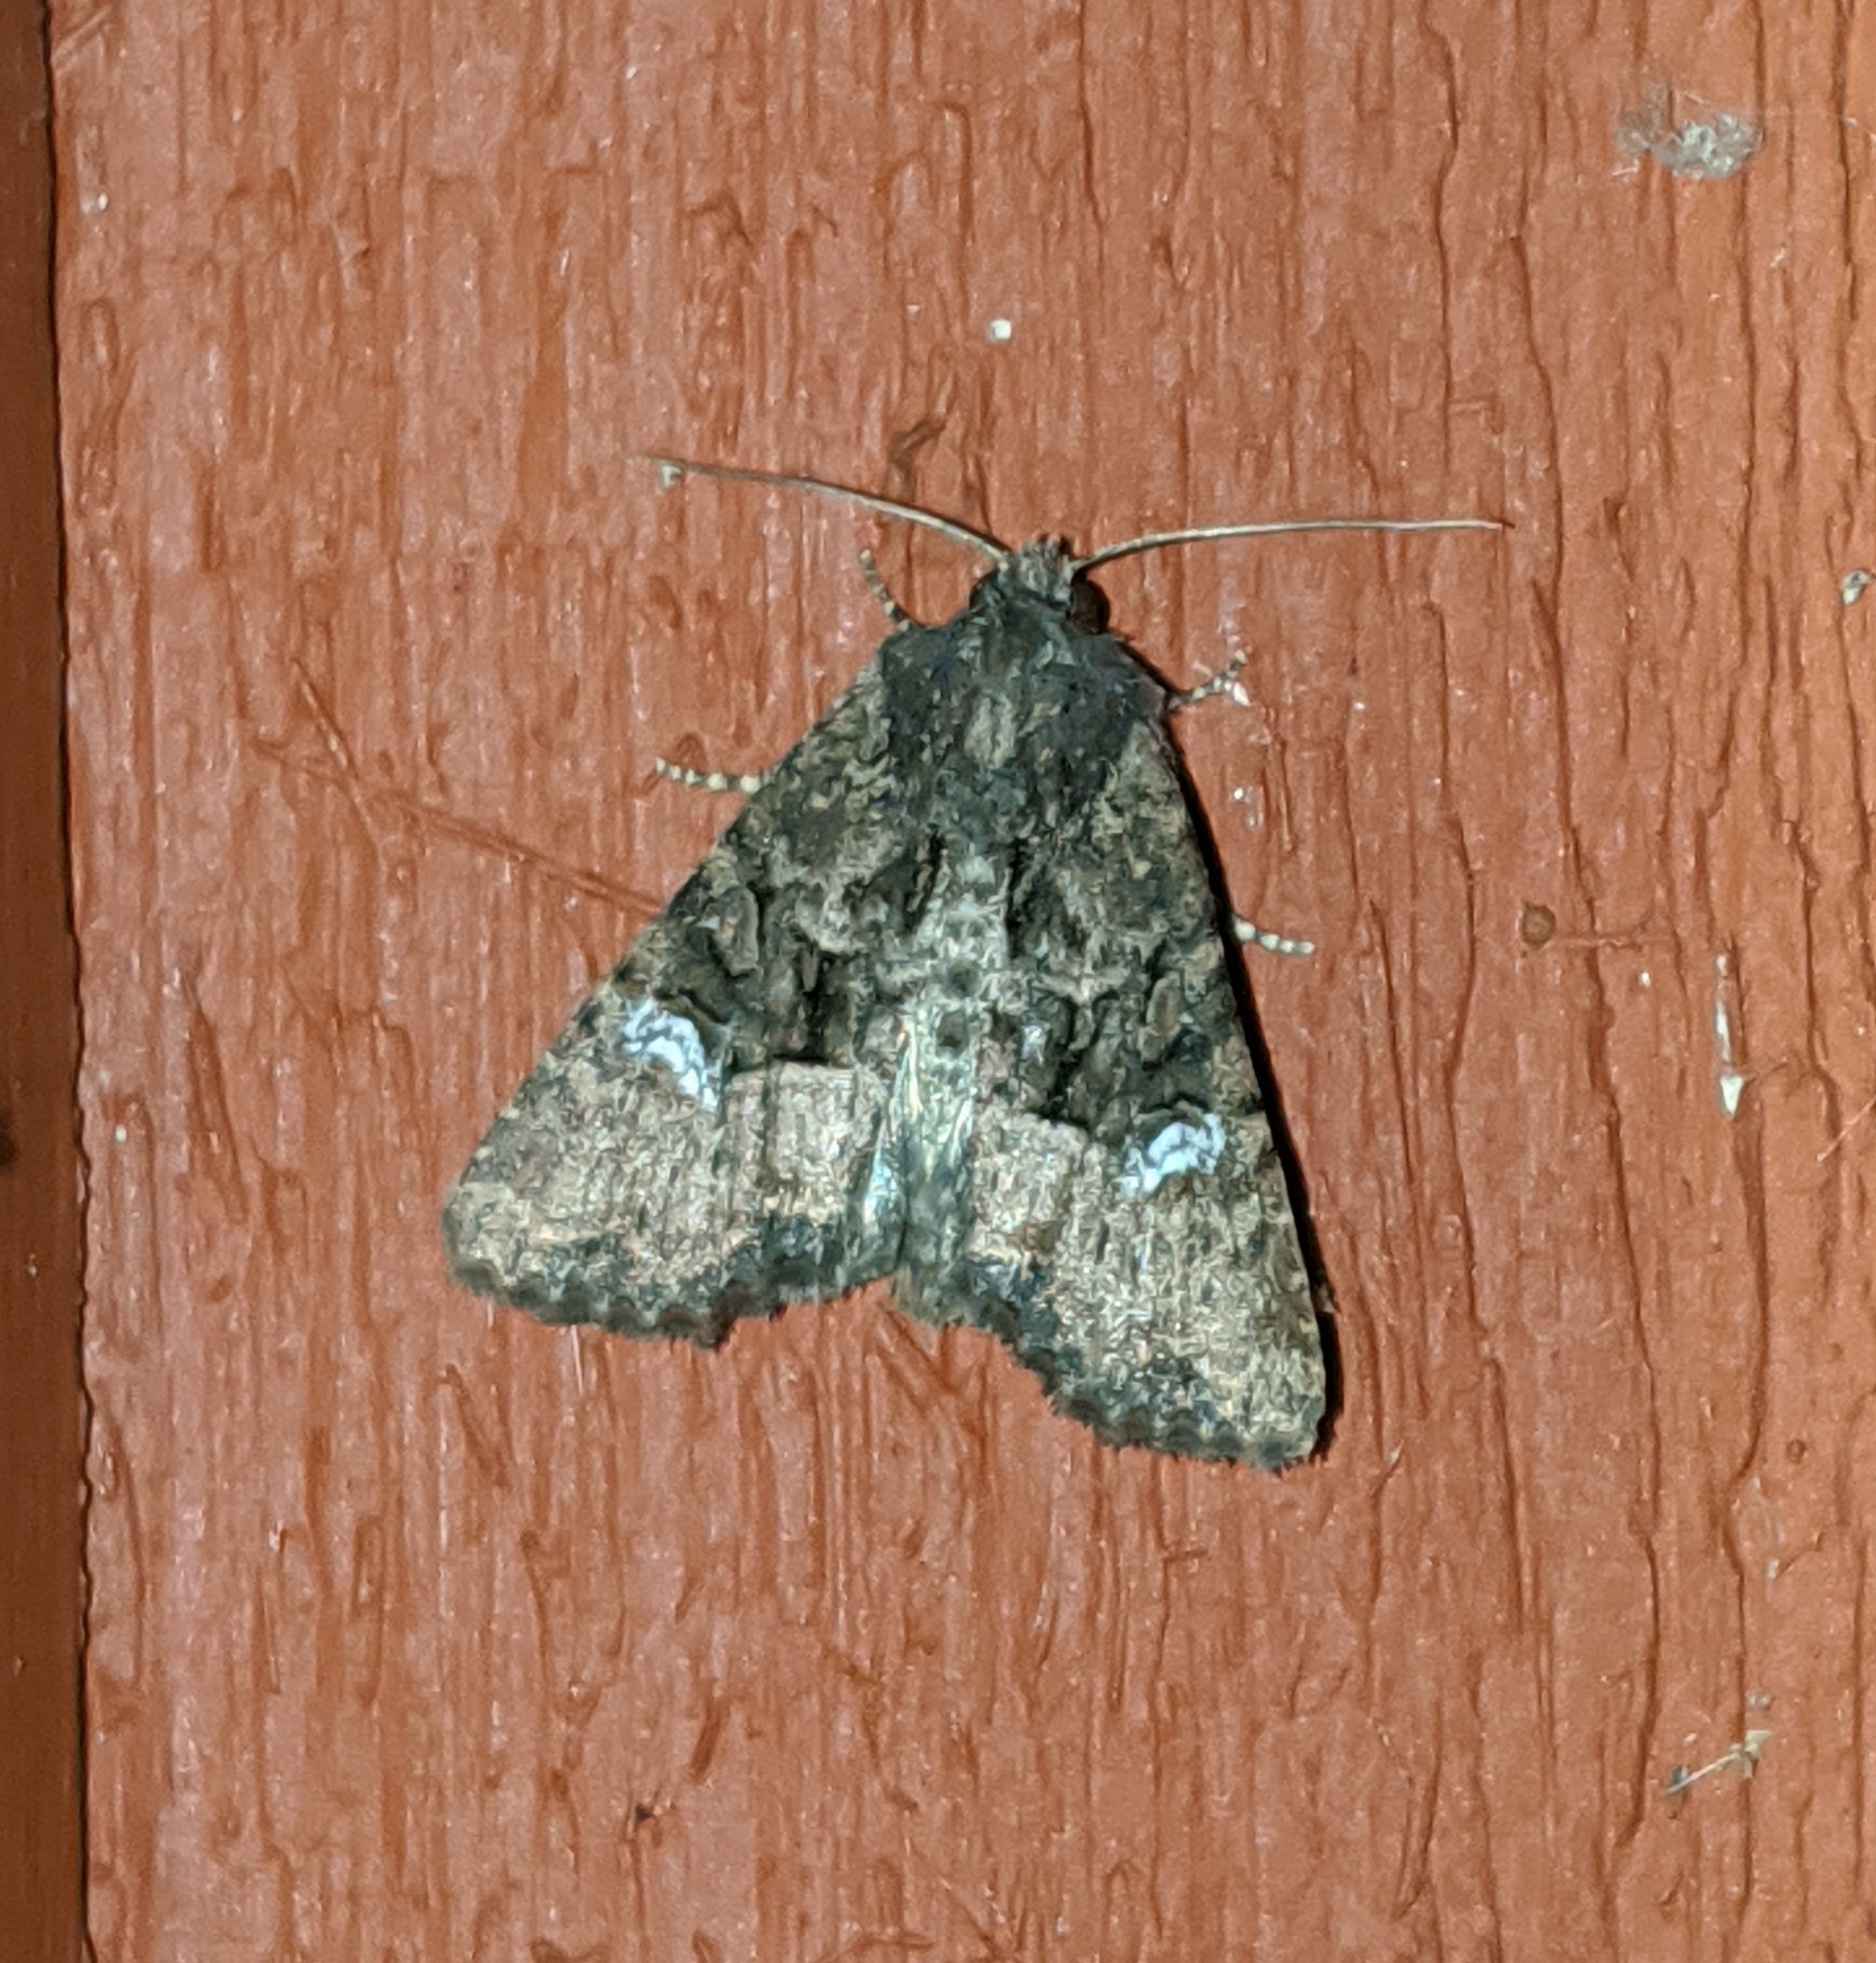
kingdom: Animalia
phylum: Arthropoda
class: Insecta
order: Lepidoptera
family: Noctuidae
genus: Mesapamea
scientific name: Mesapamea secalis
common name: Common rustic
